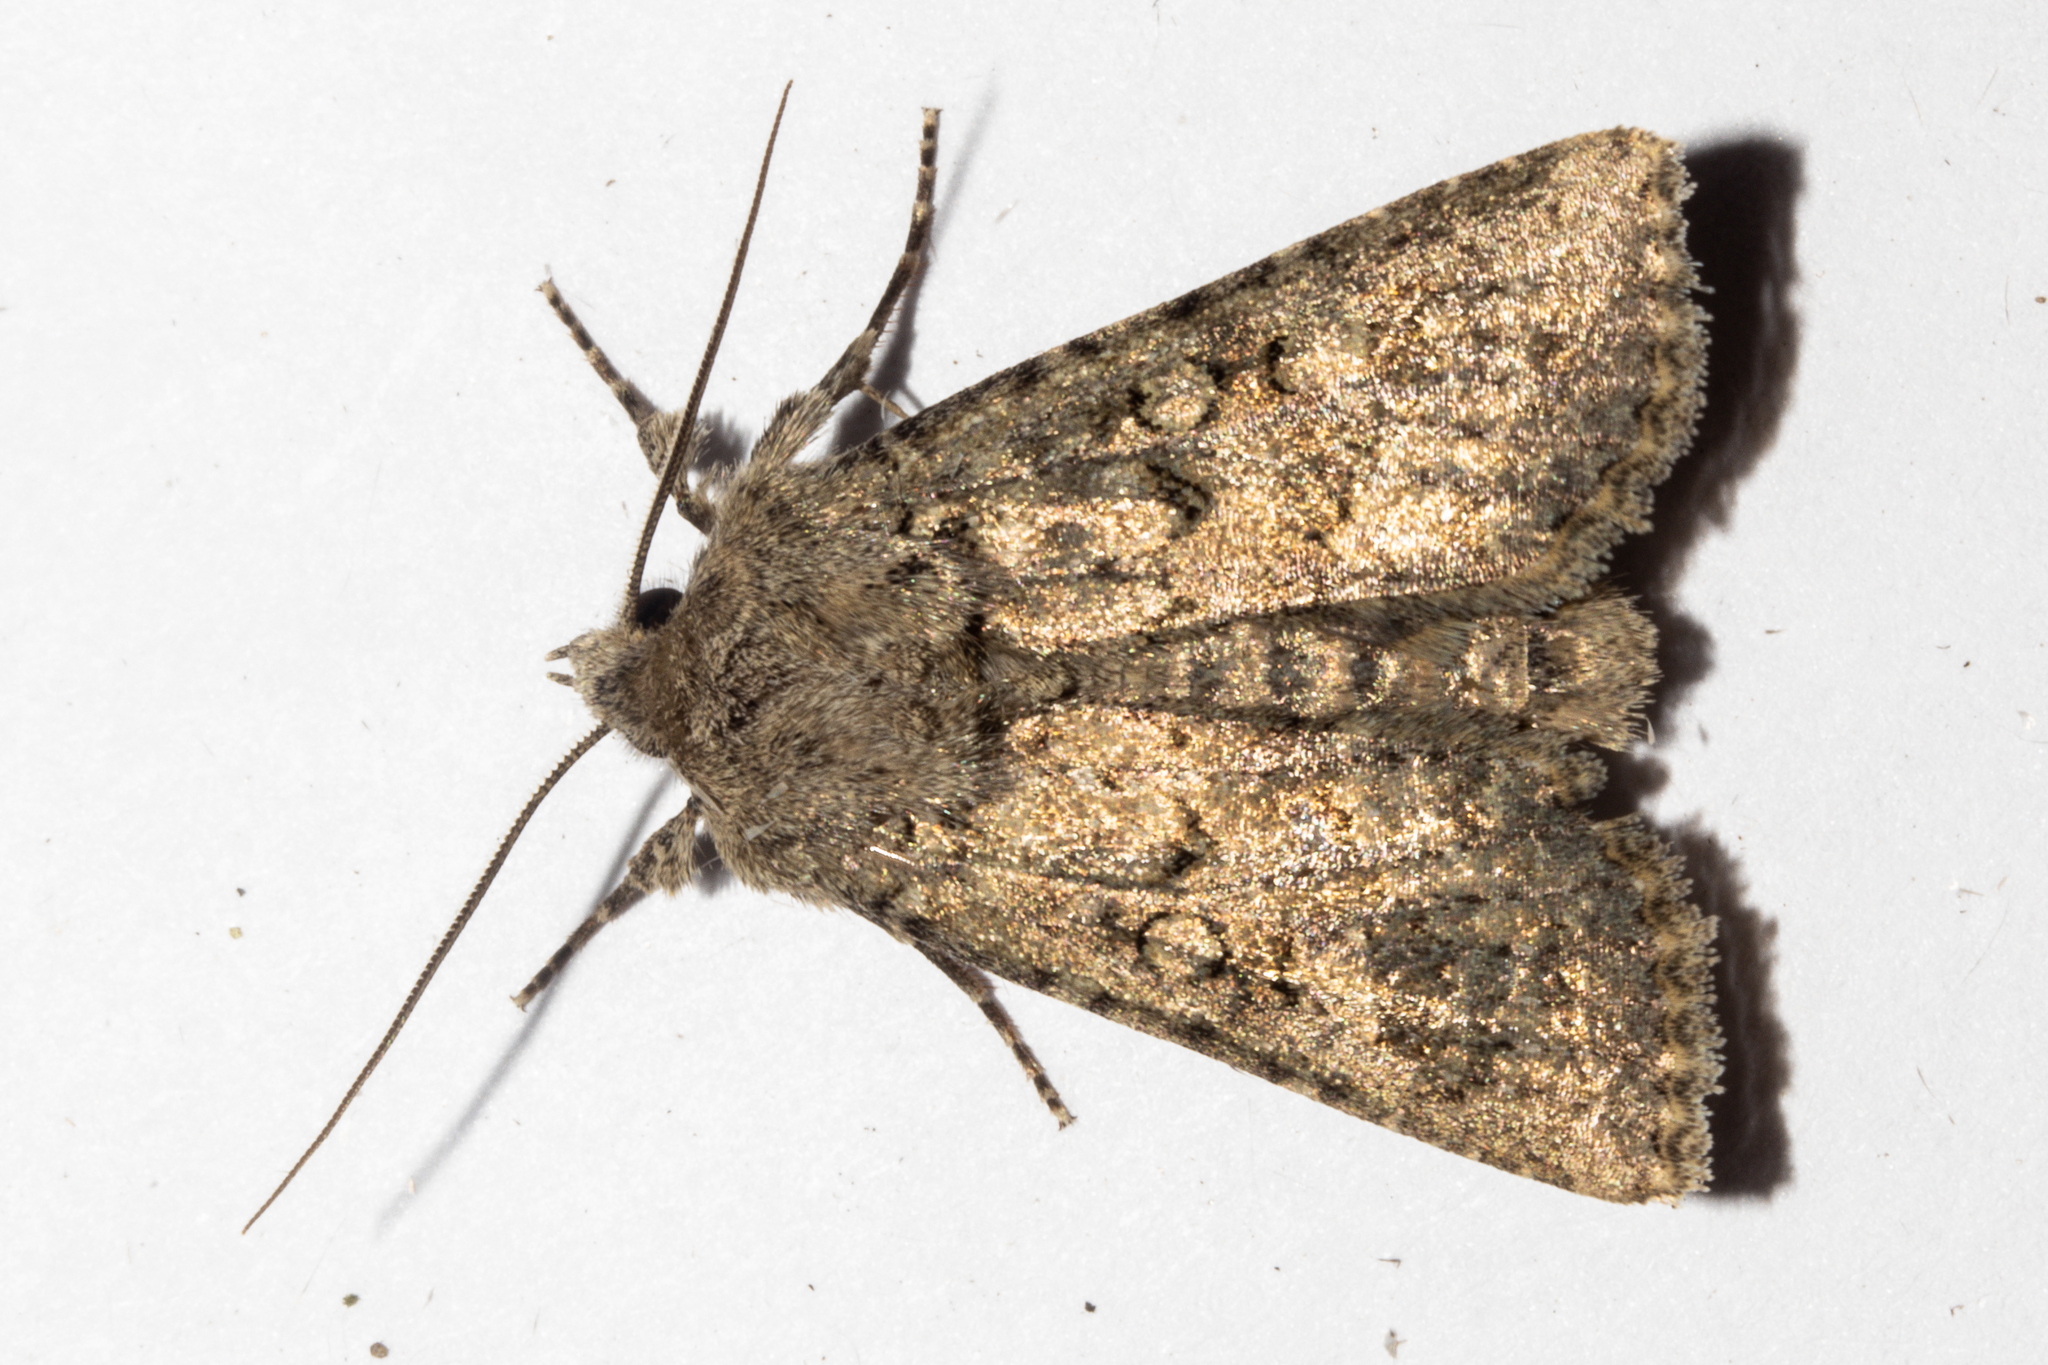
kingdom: Animalia
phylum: Arthropoda
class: Insecta
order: Lepidoptera
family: Noctuidae
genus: Physetica
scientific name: Physetica
